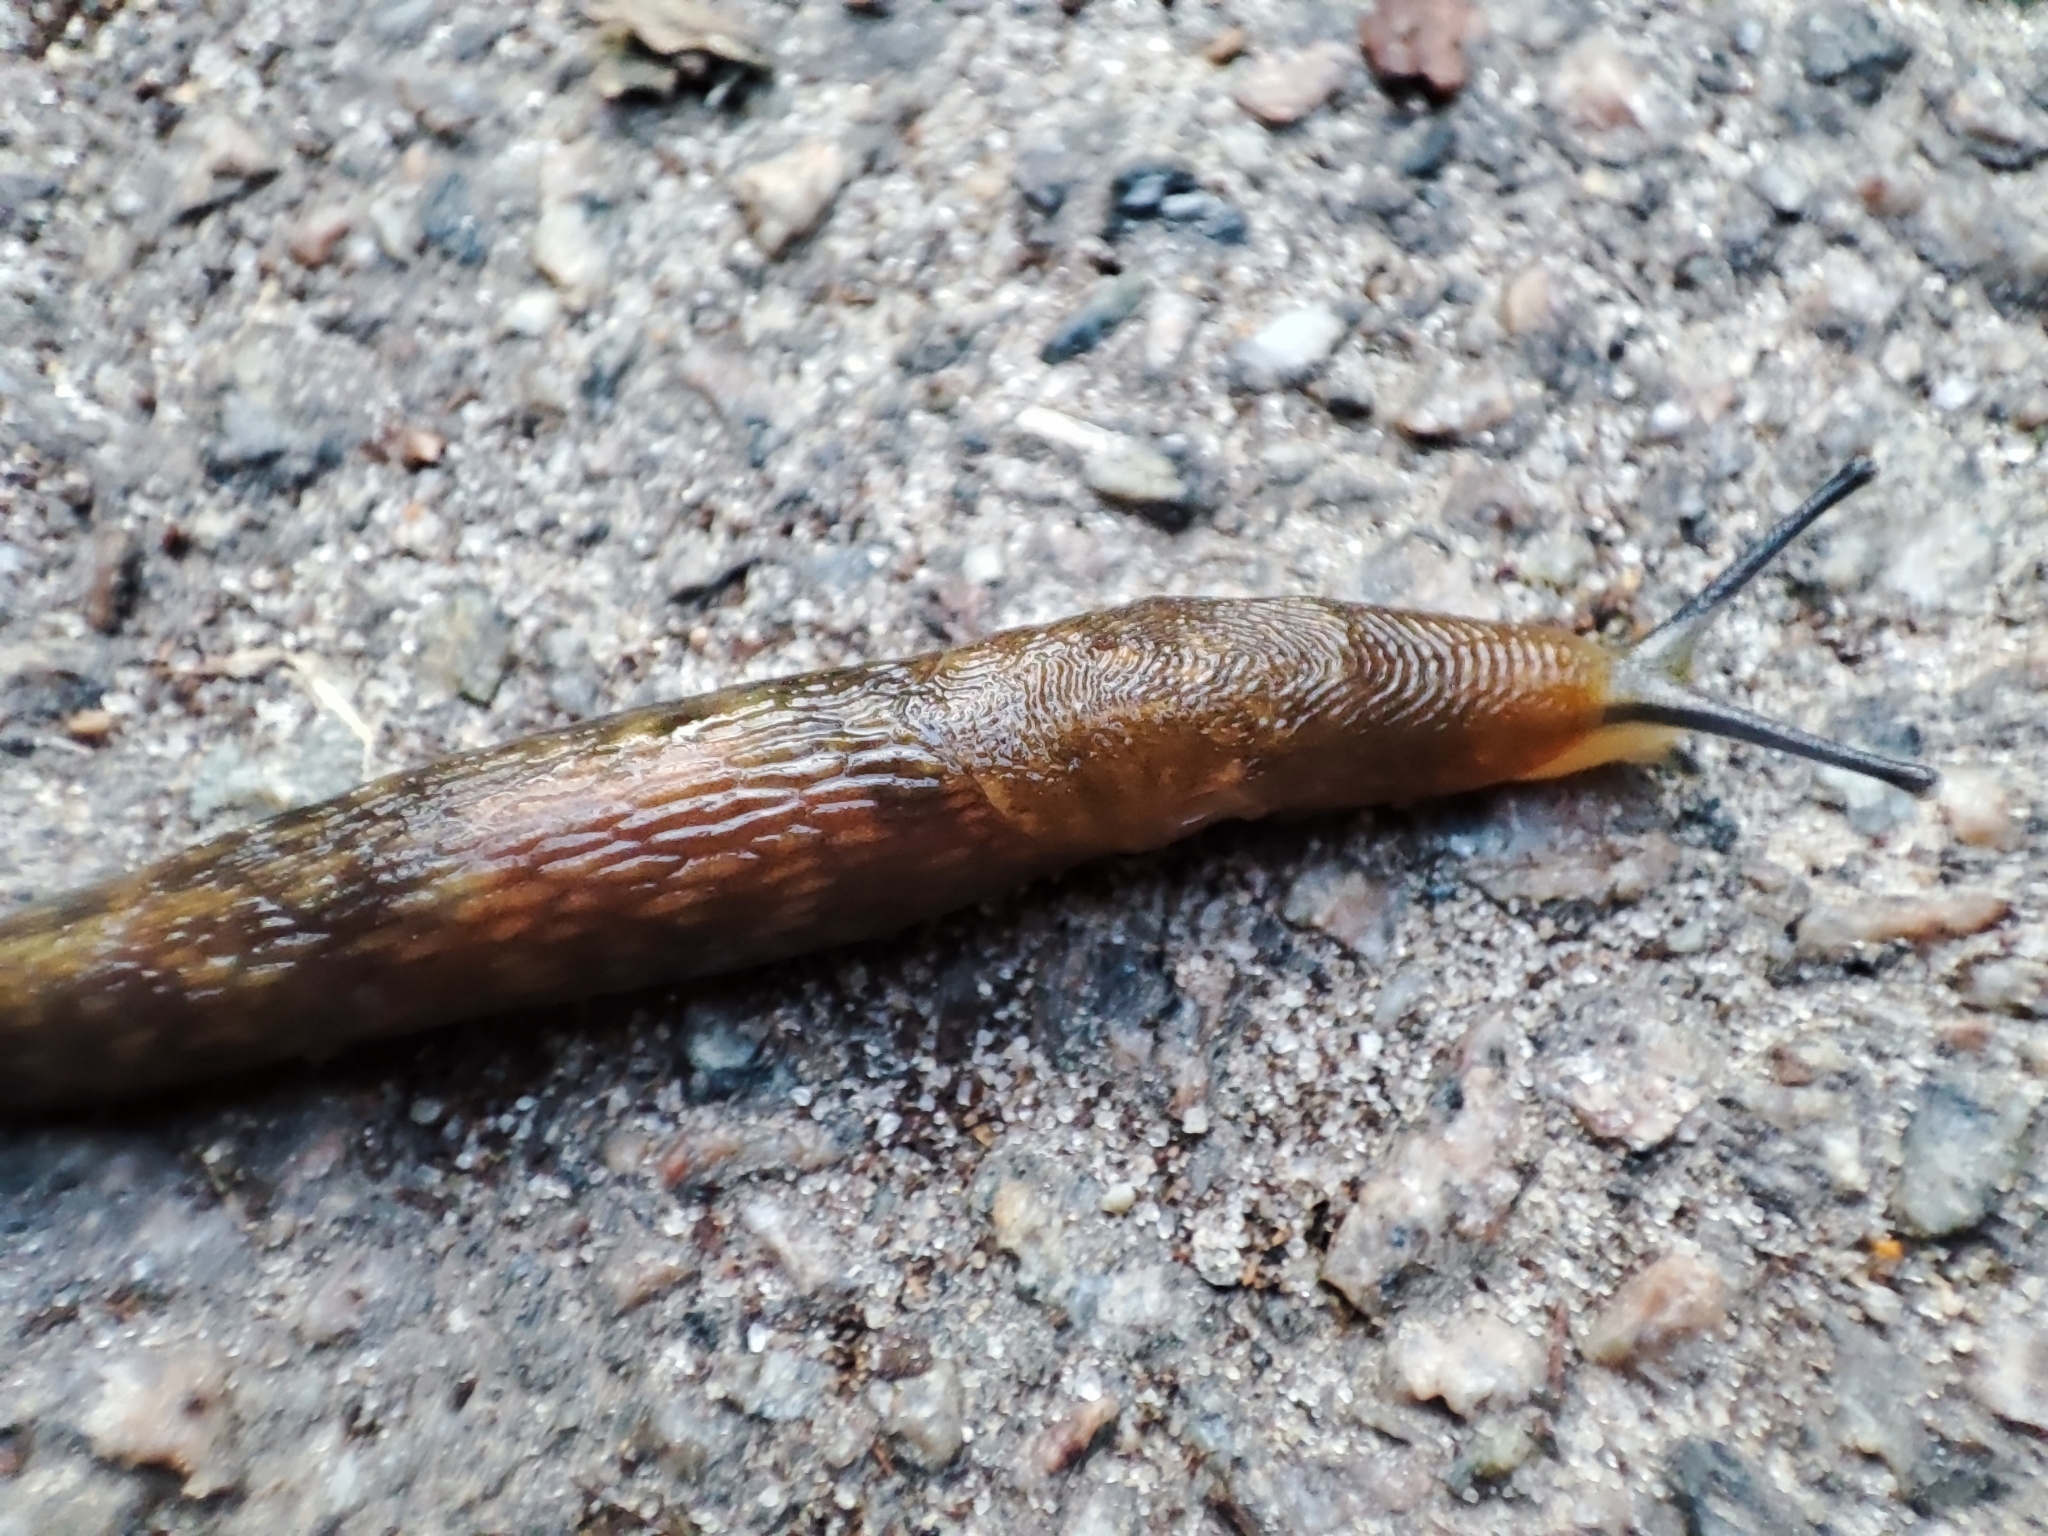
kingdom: Animalia
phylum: Mollusca
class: Gastropoda
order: Stylommatophora
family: Limacidae
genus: Limacus
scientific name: Limacus flavus
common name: Yellow gardenslug
